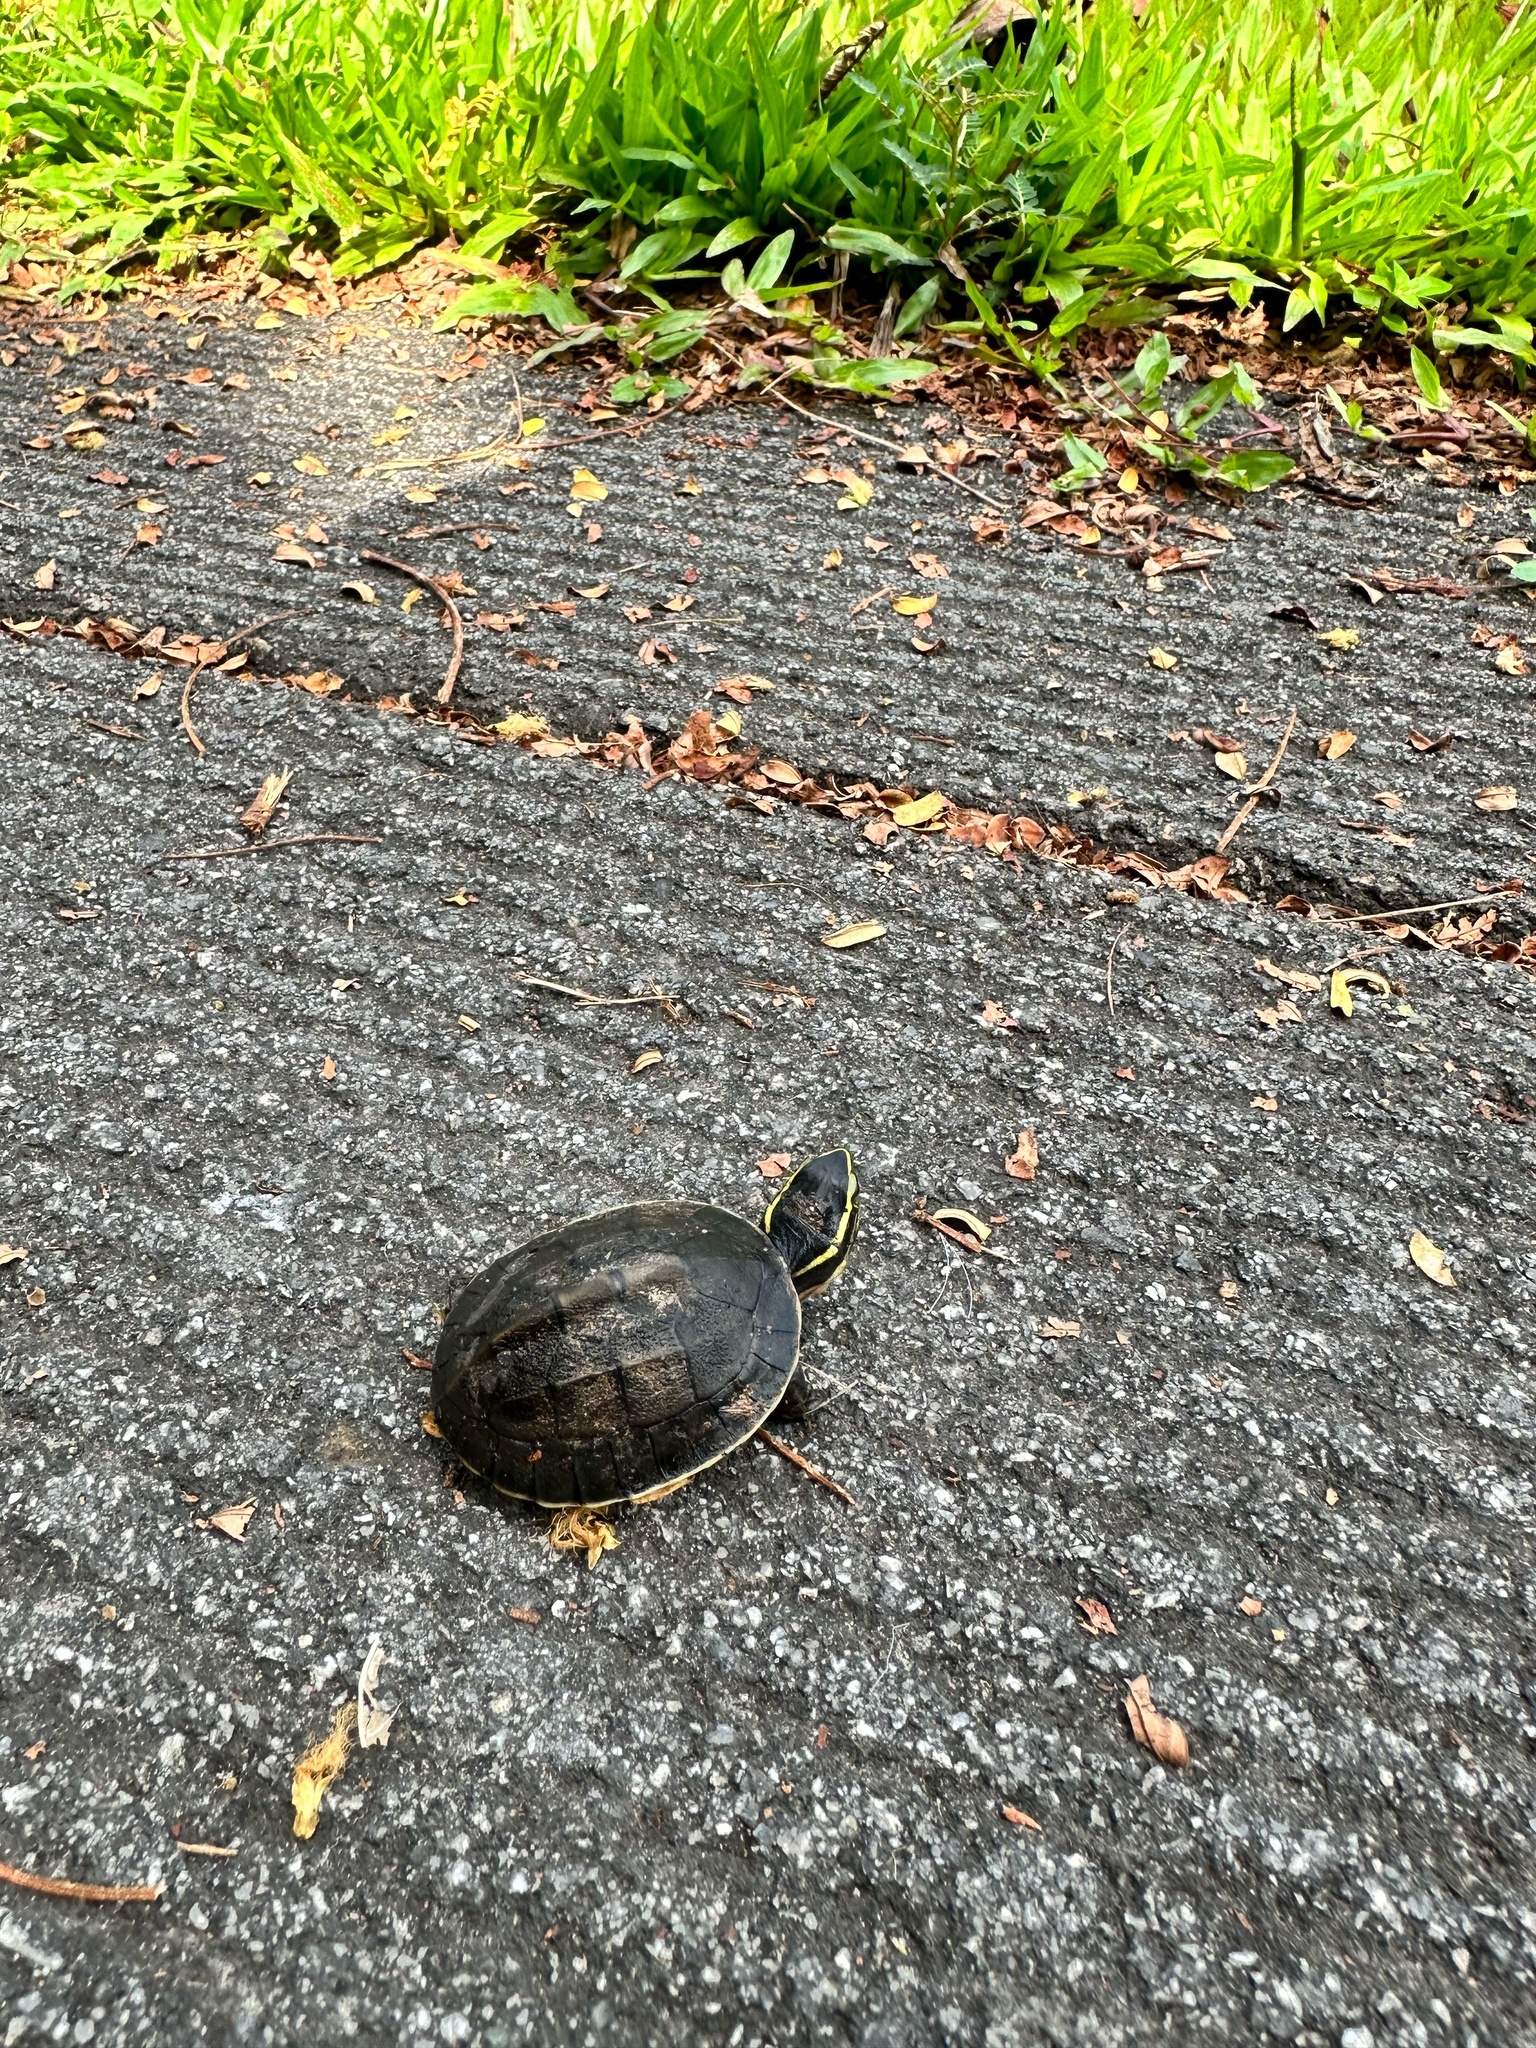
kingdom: Animalia
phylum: Chordata
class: Testudines
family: Geoemydidae
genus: Cuora
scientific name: Cuora amboinensis
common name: Southeast asian box turtle
